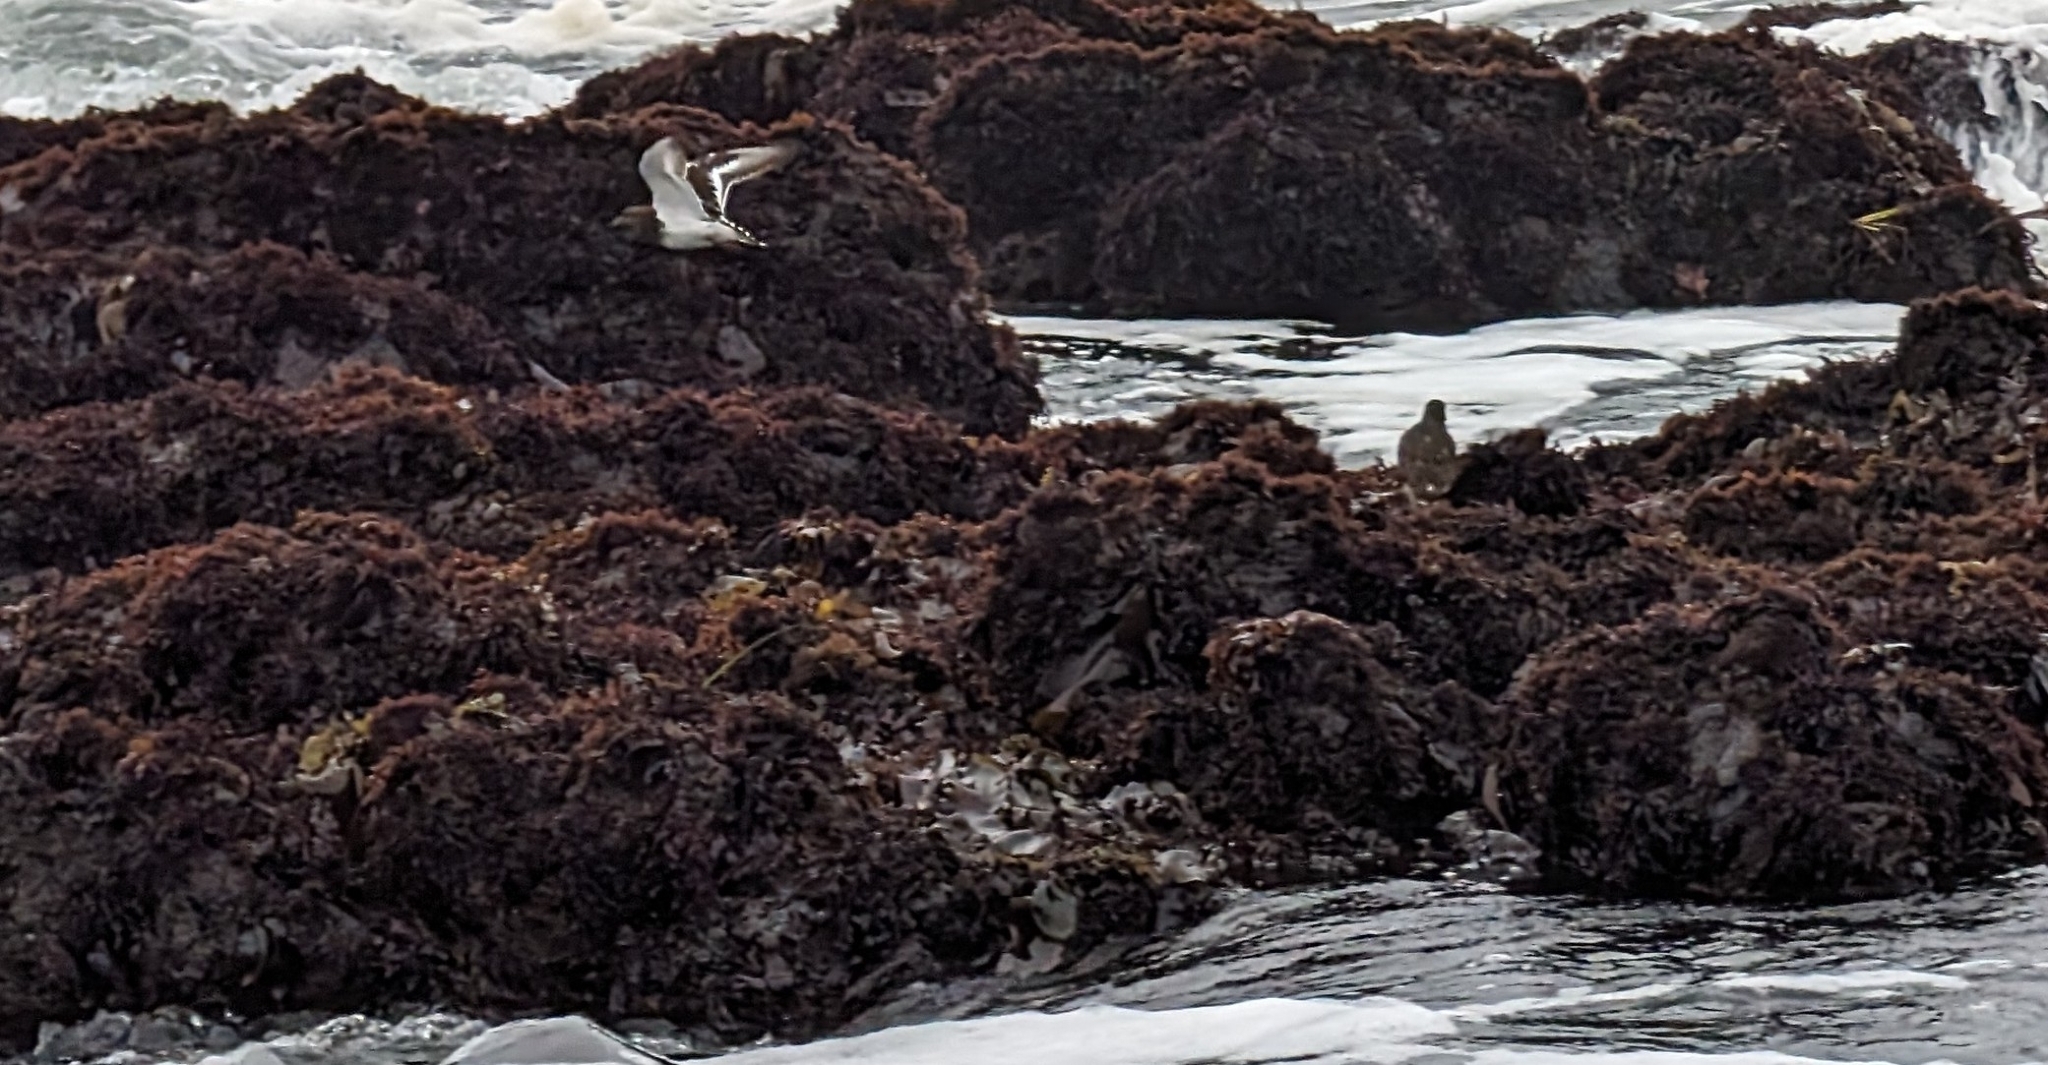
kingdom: Animalia
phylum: Chordata
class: Aves
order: Charadriiformes
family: Scolopacidae
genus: Arenaria
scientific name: Arenaria melanocephala
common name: Black turnstone
